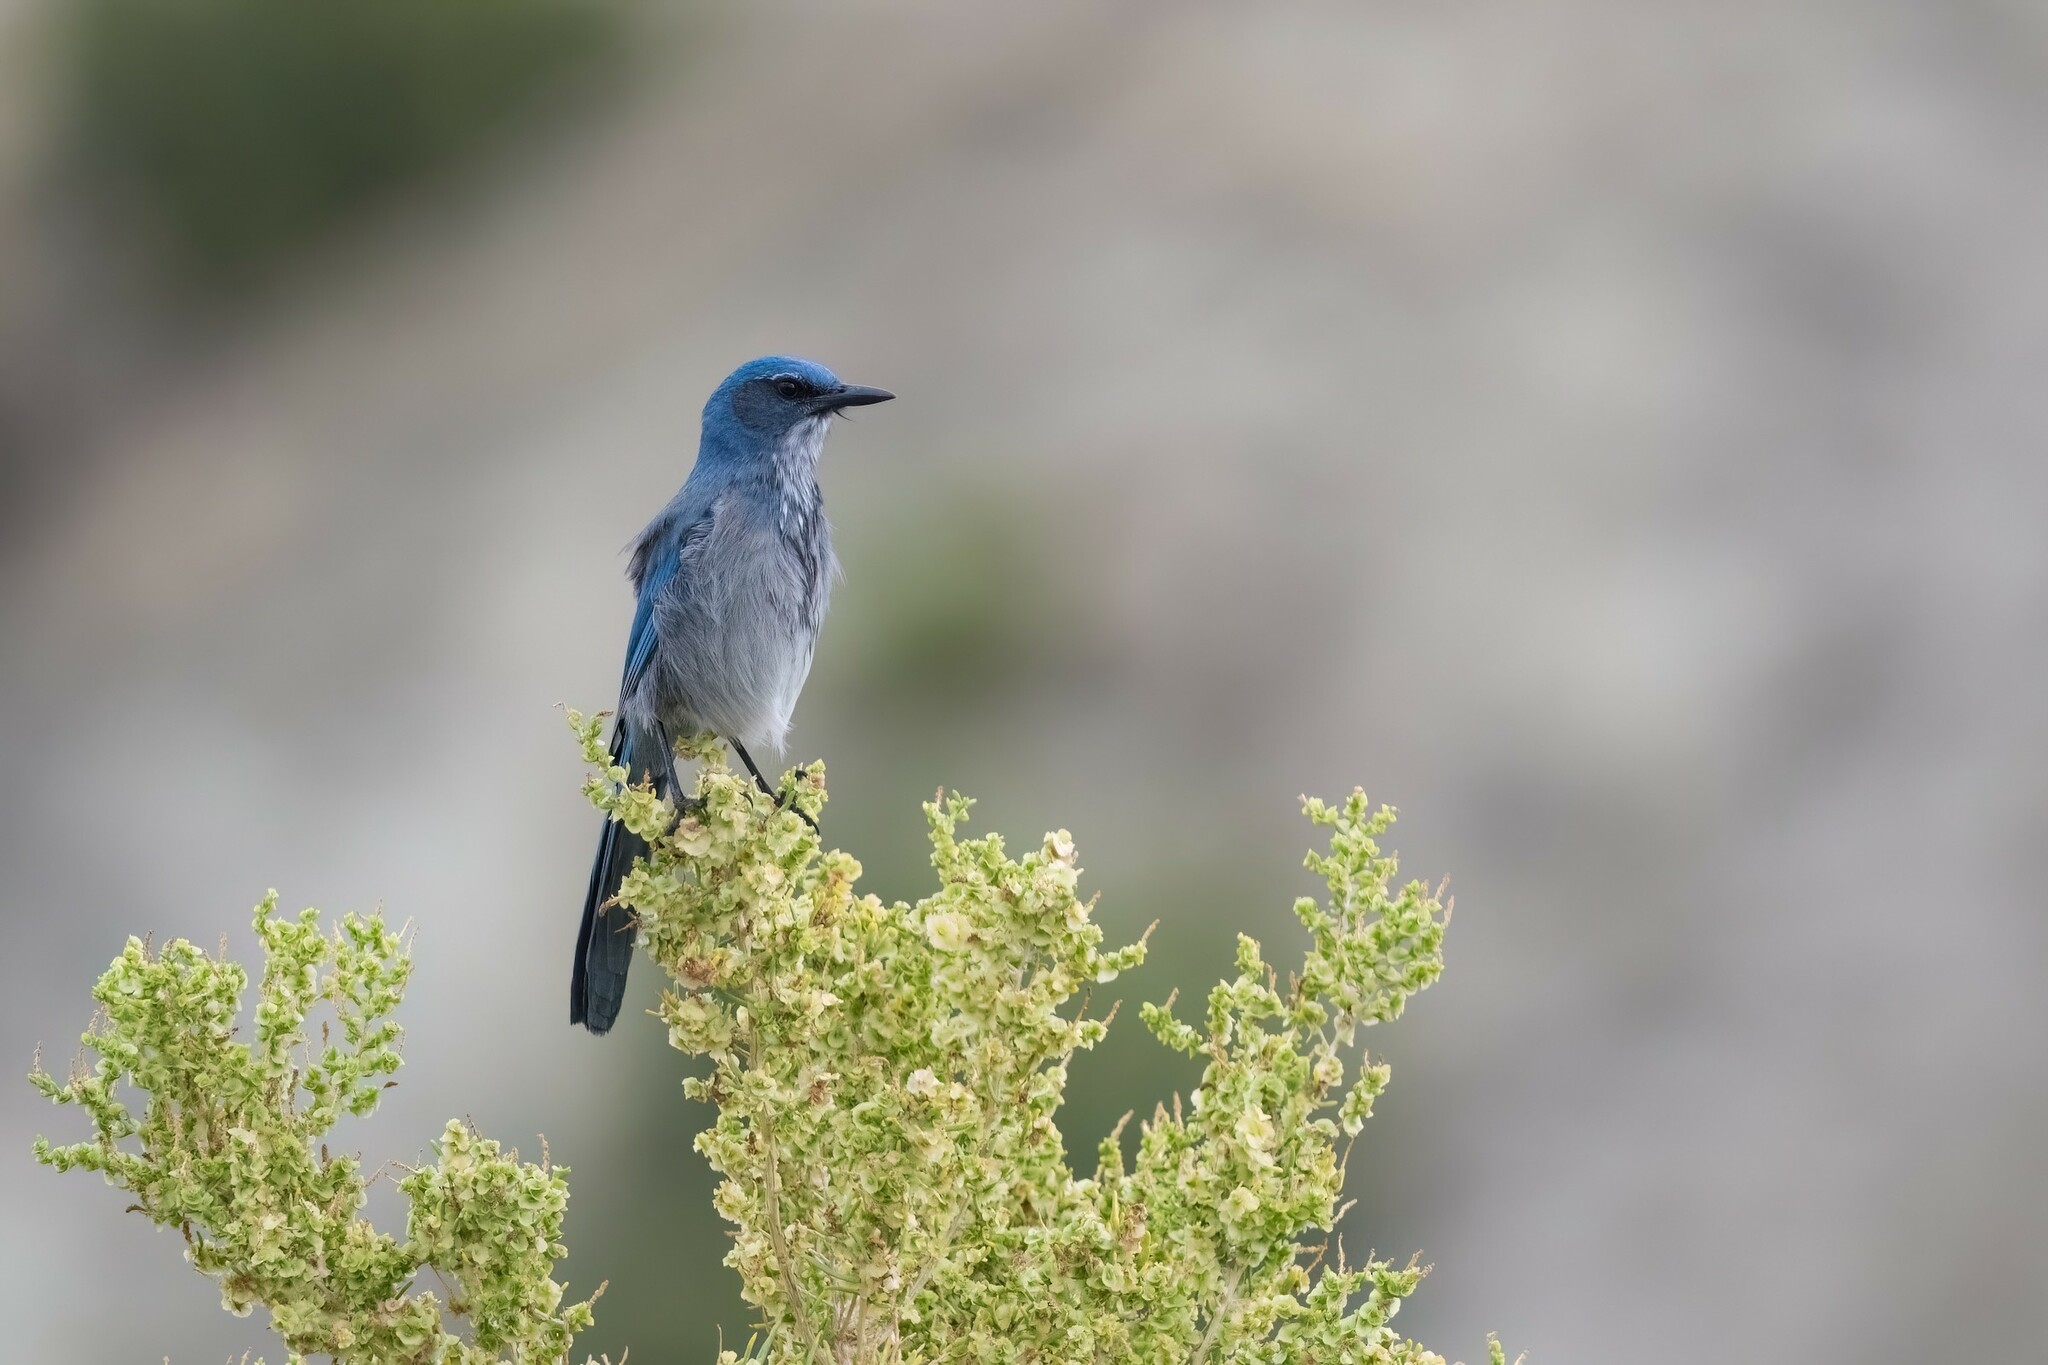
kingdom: Animalia
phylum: Chordata
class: Aves
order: Passeriformes
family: Corvidae
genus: Aphelocoma
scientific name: Aphelocoma woodhouseii
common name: Woodhouse's scrub-jay
